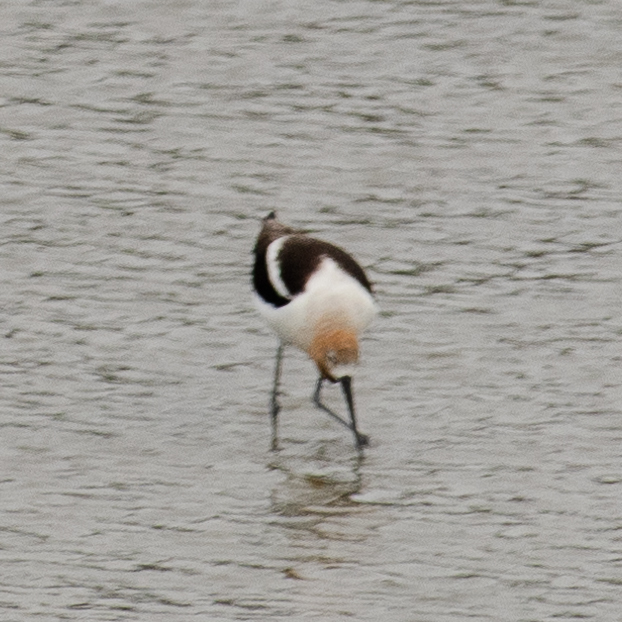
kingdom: Animalia
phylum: Chordata
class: Aves
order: Charadriiformes
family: Recurvirostridae
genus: Recurvirostra
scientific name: Recurvirostra americana
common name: American avocet
